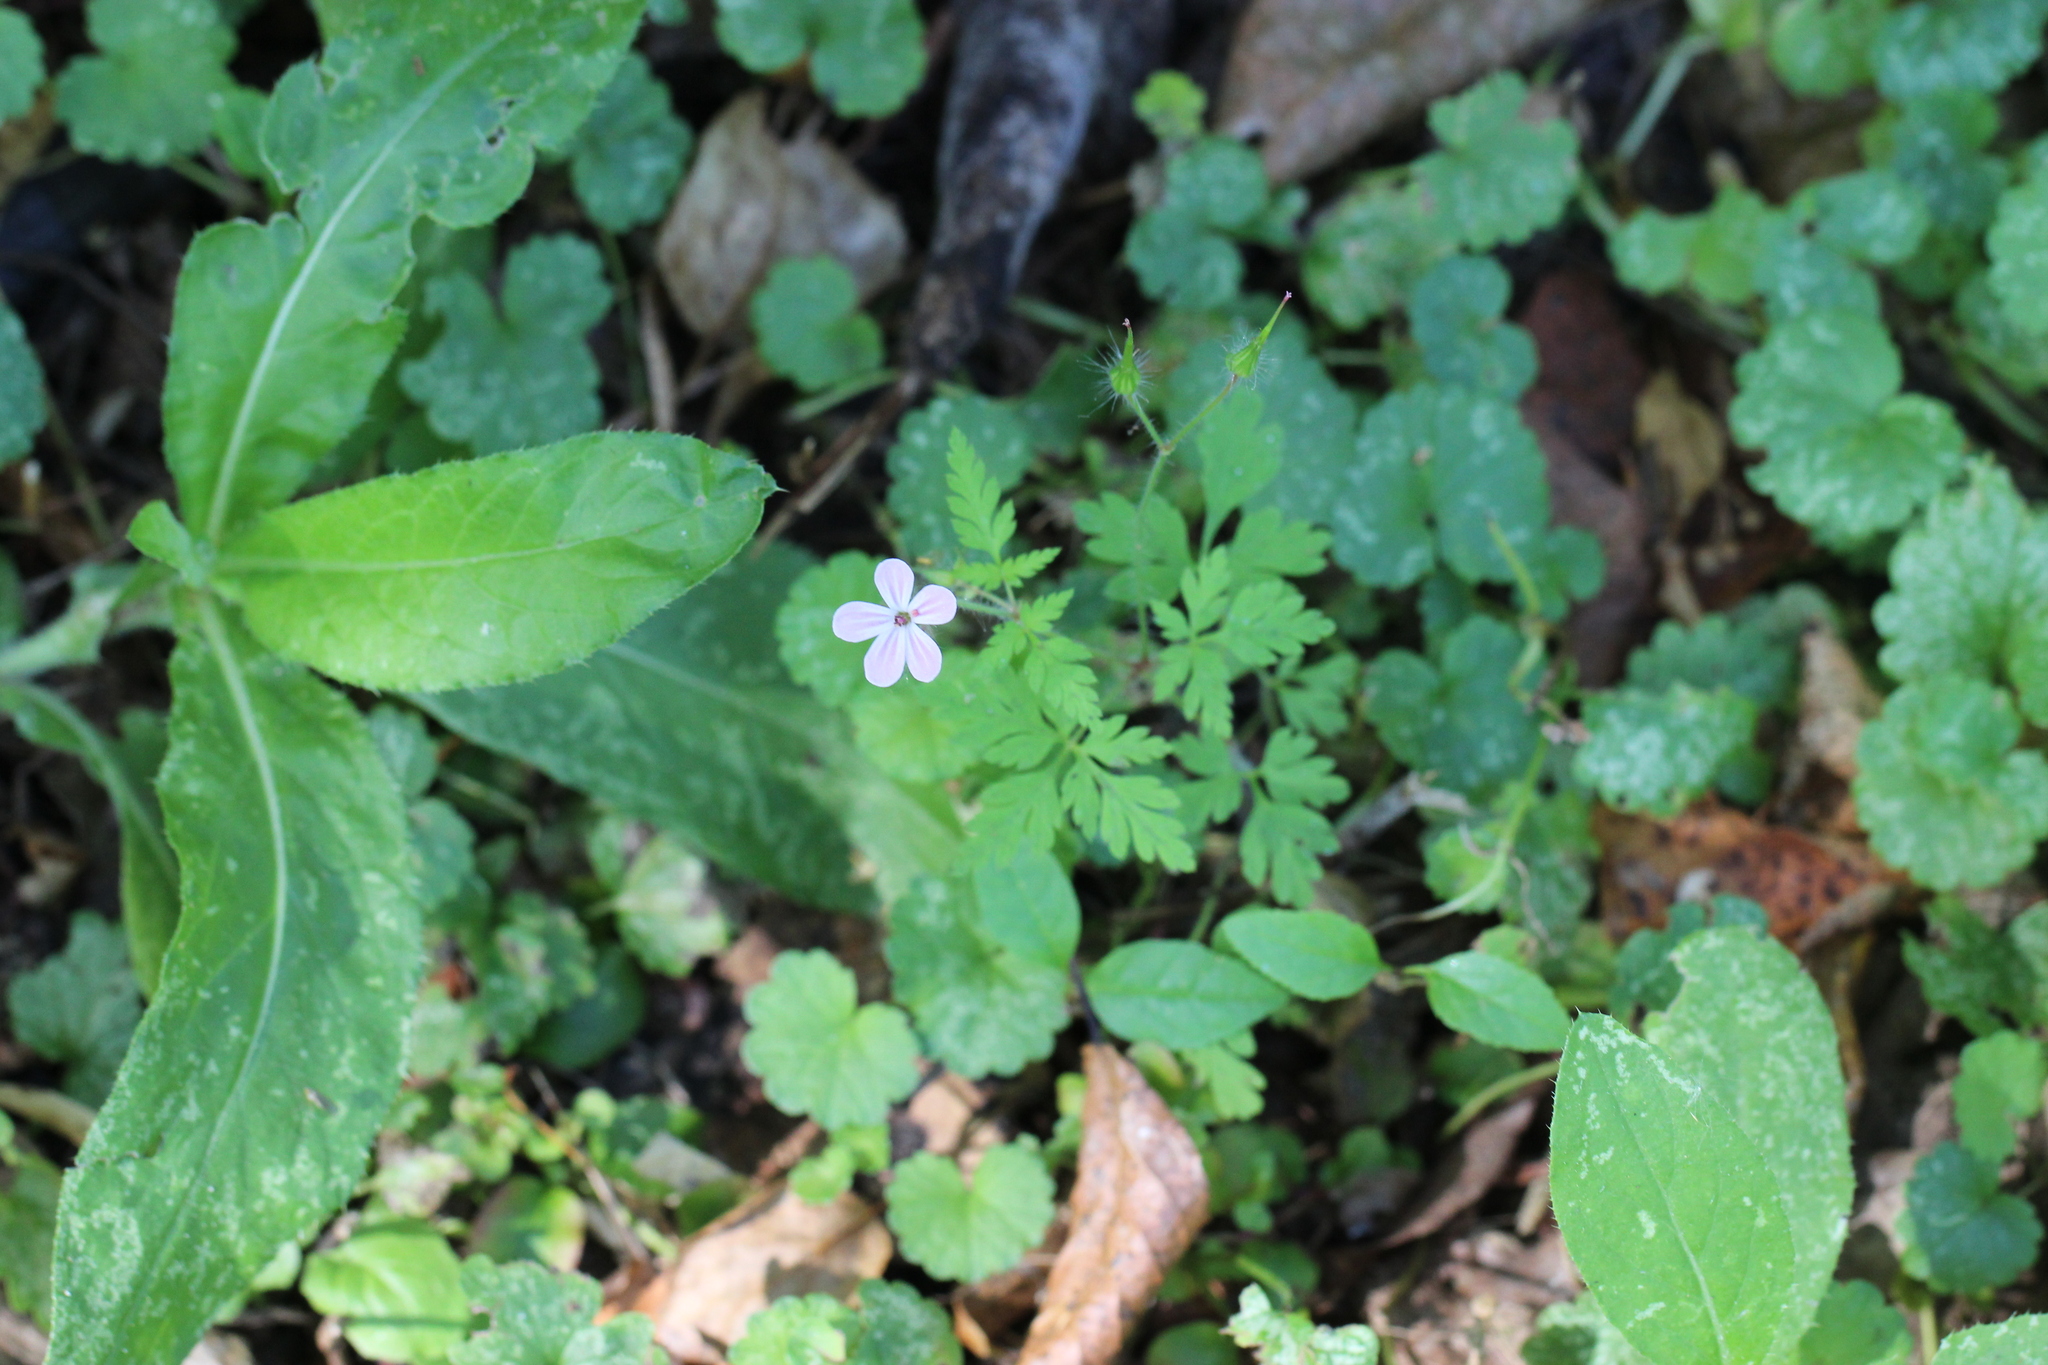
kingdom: Plantae
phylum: Tracheophyta
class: Magnoliopsida
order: Geraniales
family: Geraniaceae
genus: Geranium
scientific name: Geranium robertianum
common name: Herb-robert
